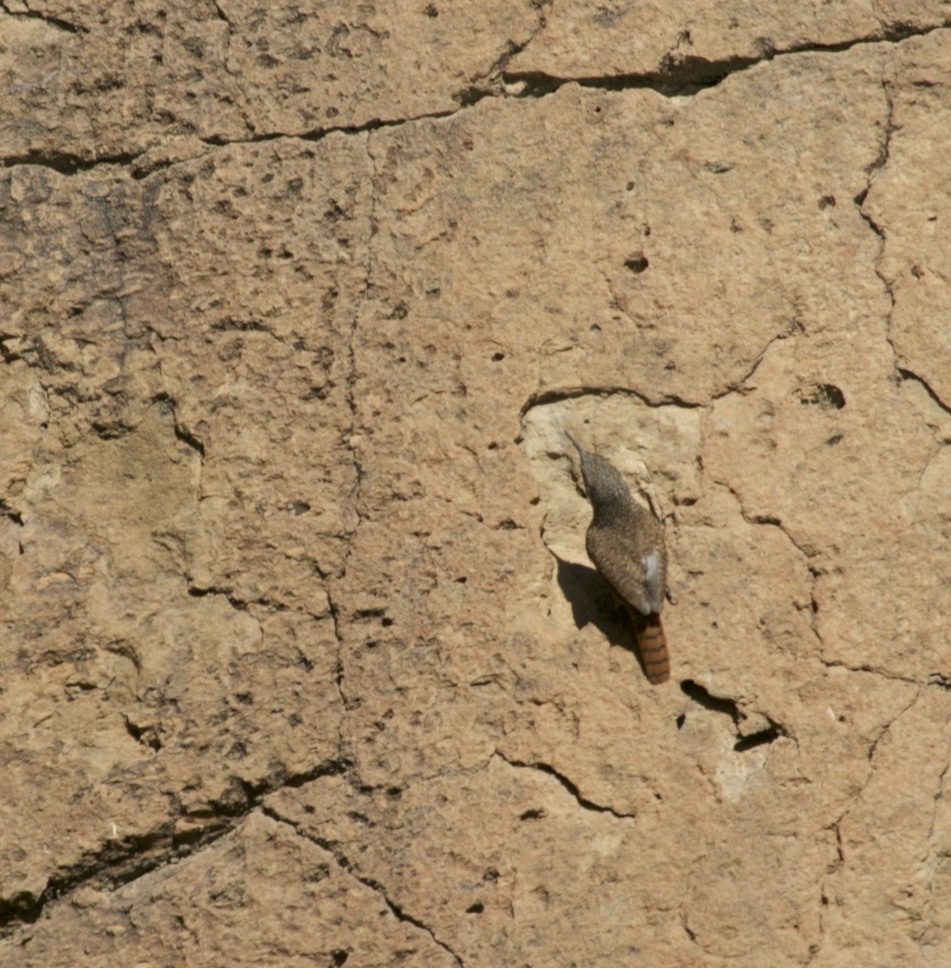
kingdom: Animalia
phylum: Chordata
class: Aves
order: Passeriformes
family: Troglodytidae
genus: Catherpes
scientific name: Catherpes mexicanus
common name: Canyon wren
